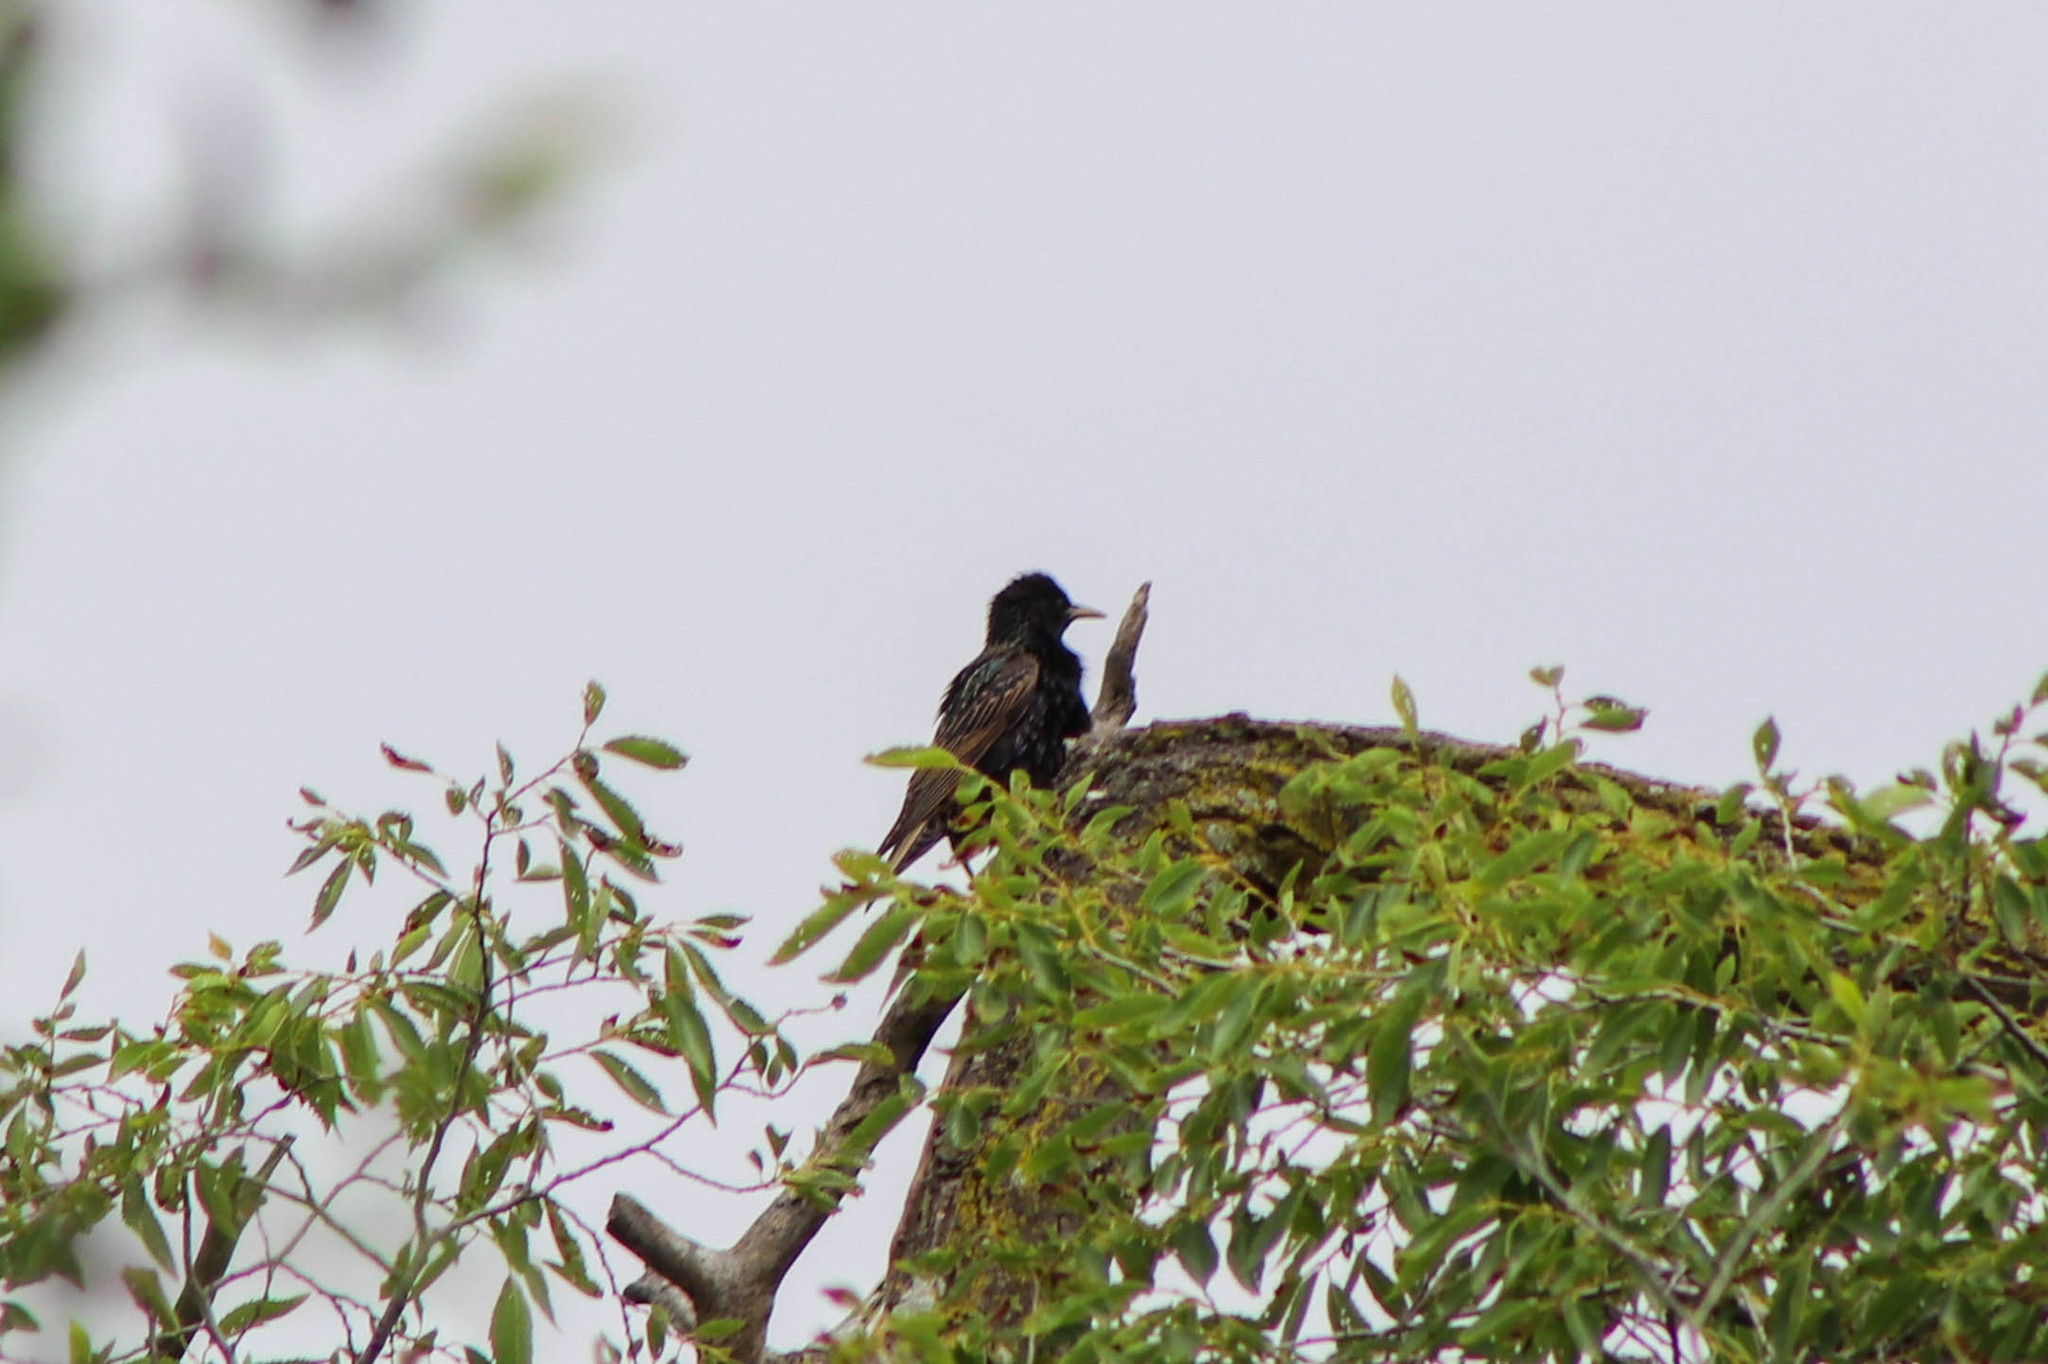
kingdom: Animalia
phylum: Chordata
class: Aves
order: Passeriformes
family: Sturnidae
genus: Sturnus
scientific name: Sturnus vulgaris
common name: Common starling
